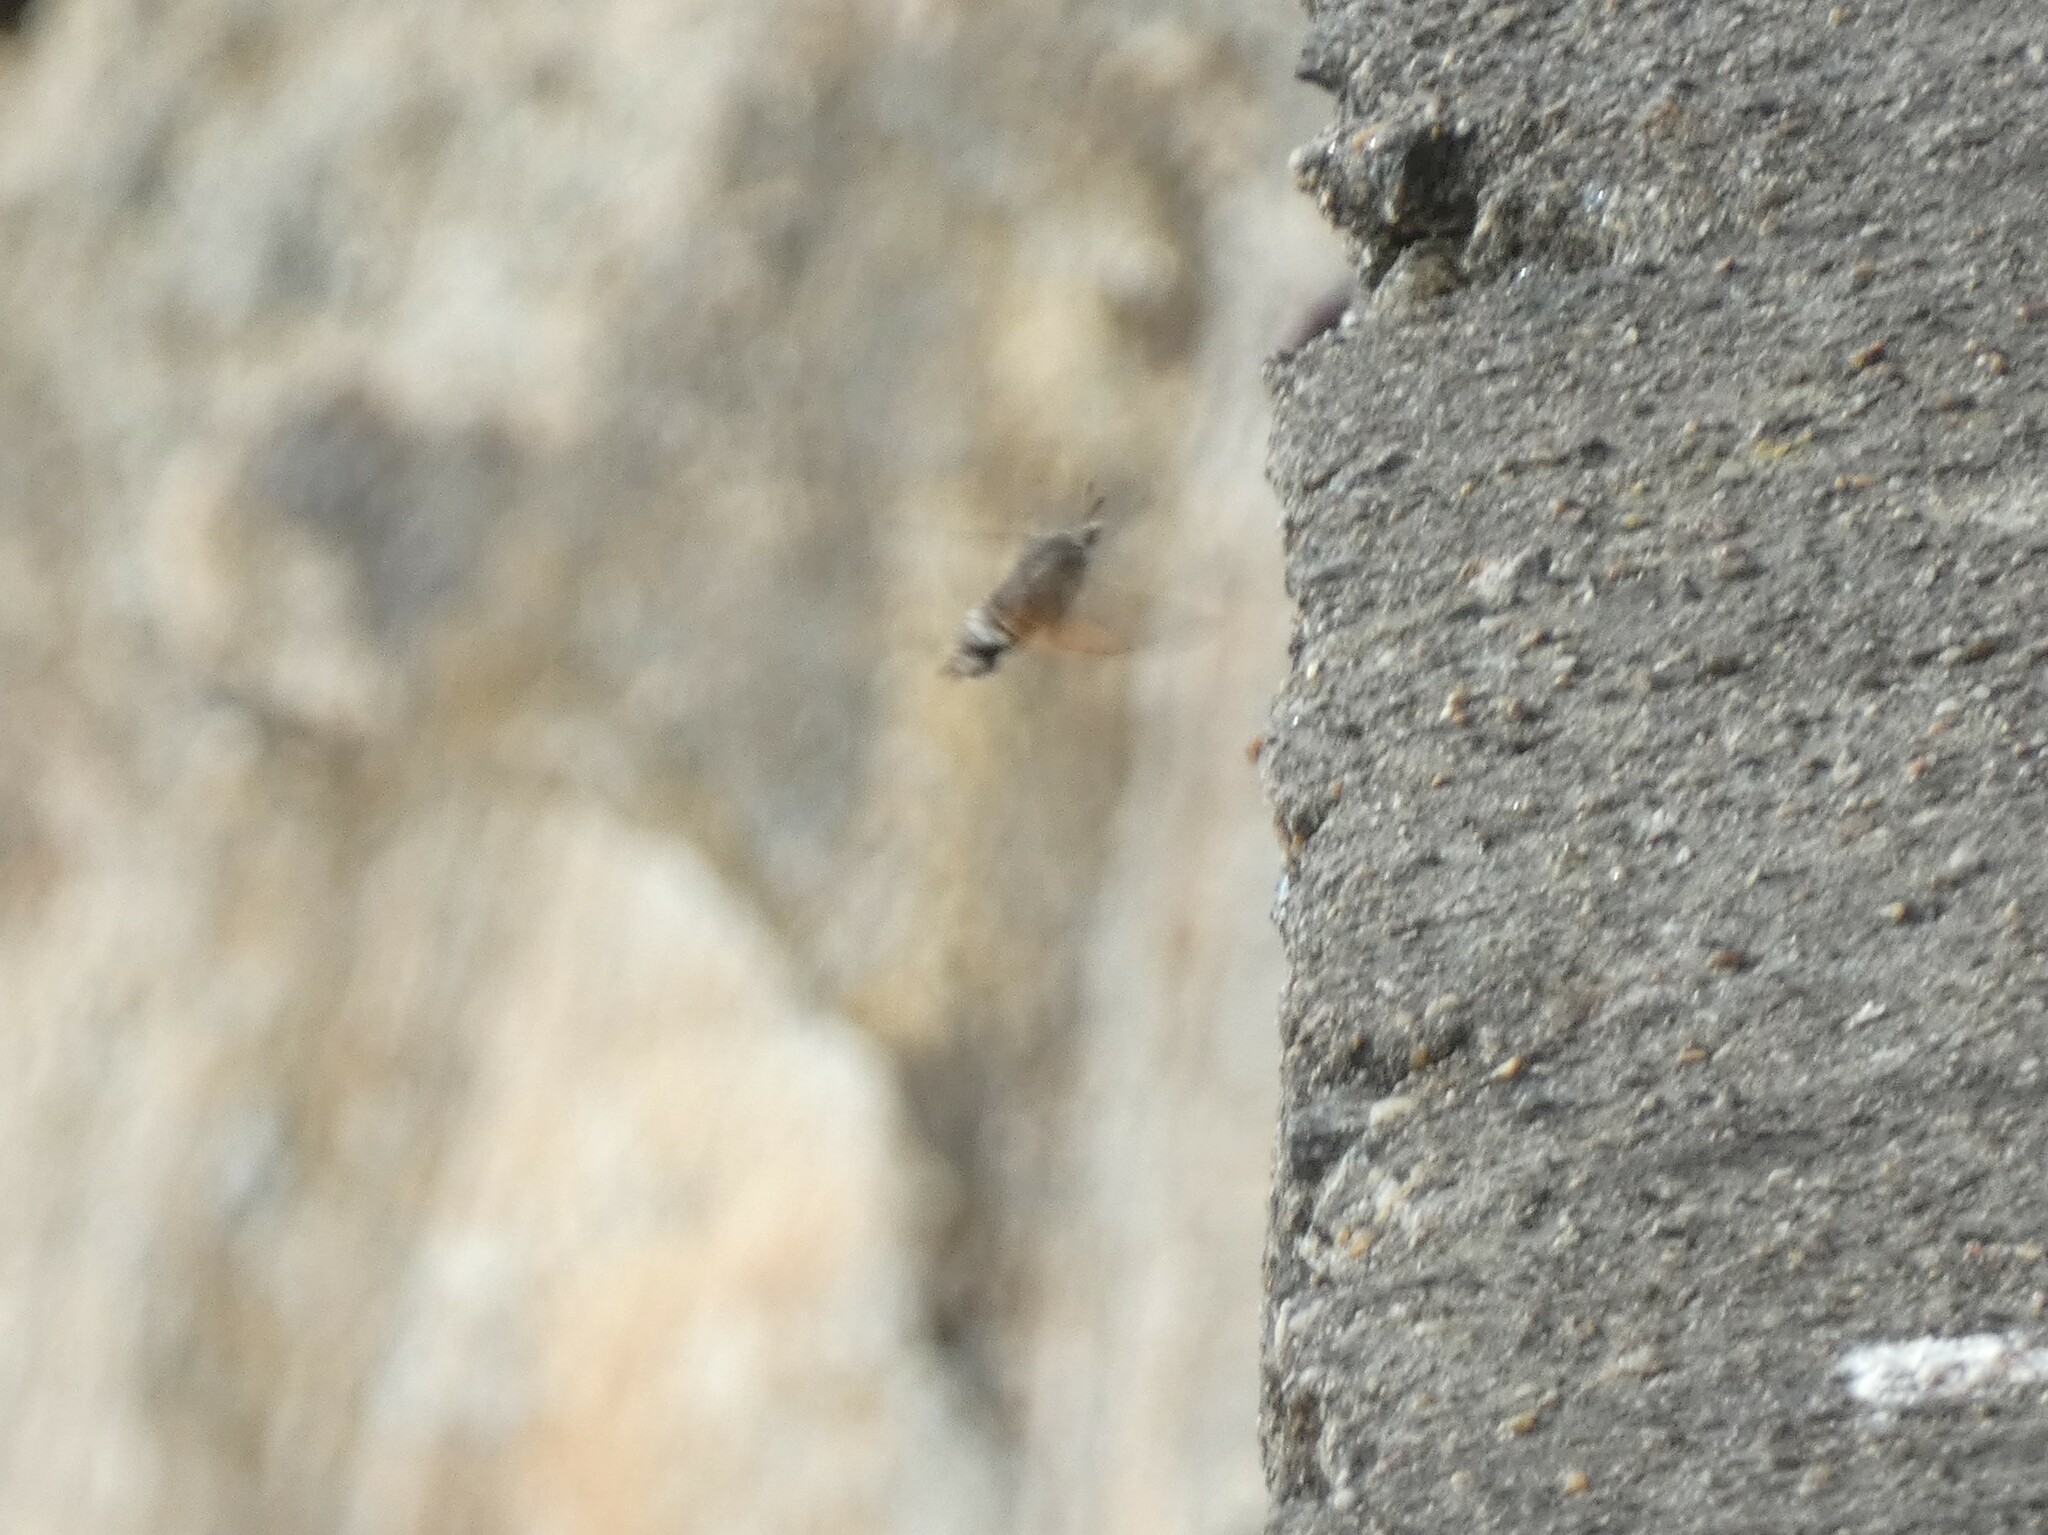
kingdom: Animalia
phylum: Arthropoda
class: Insecta
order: Lepidoptera
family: Sphingidae
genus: Macroglossum
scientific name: Macroglossum stellatarum
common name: Humming-bird hawk-moth
